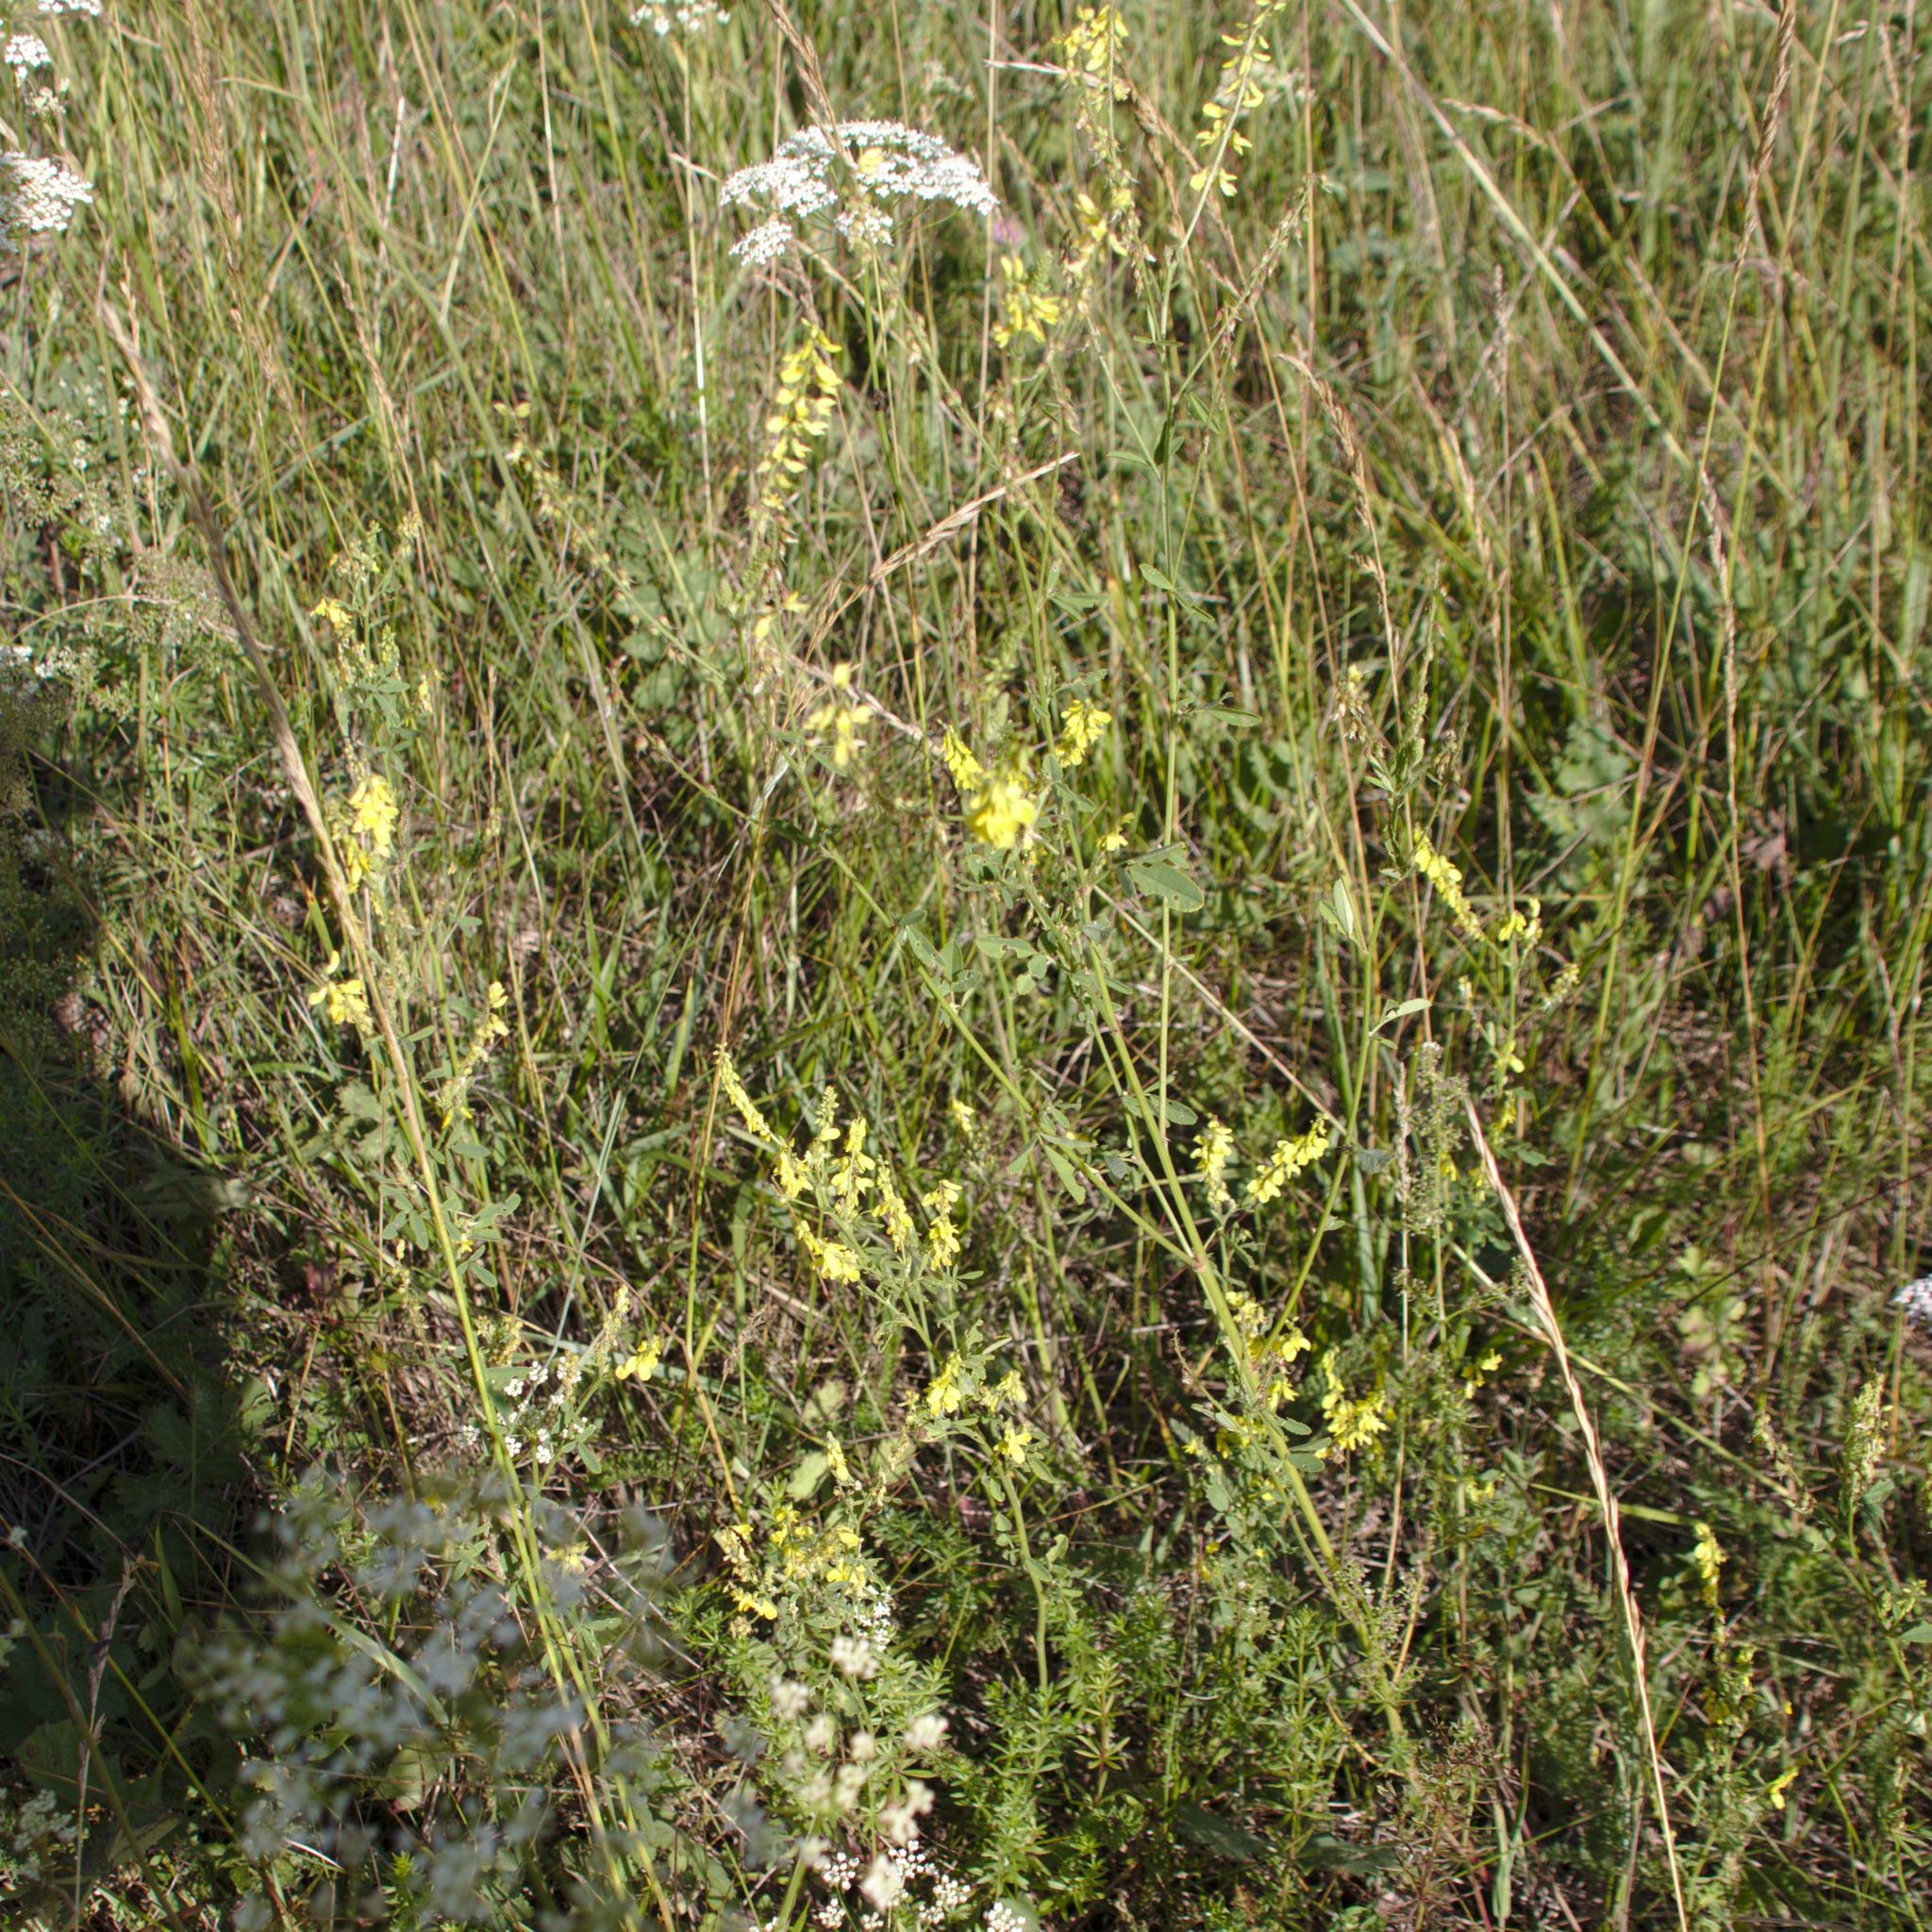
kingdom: Plantae
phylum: Tracheophyta
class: Magnoliopsida
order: Fabales
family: Fabaceae
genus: Melilotus
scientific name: Melilotus officinalis
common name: Sweetclover
